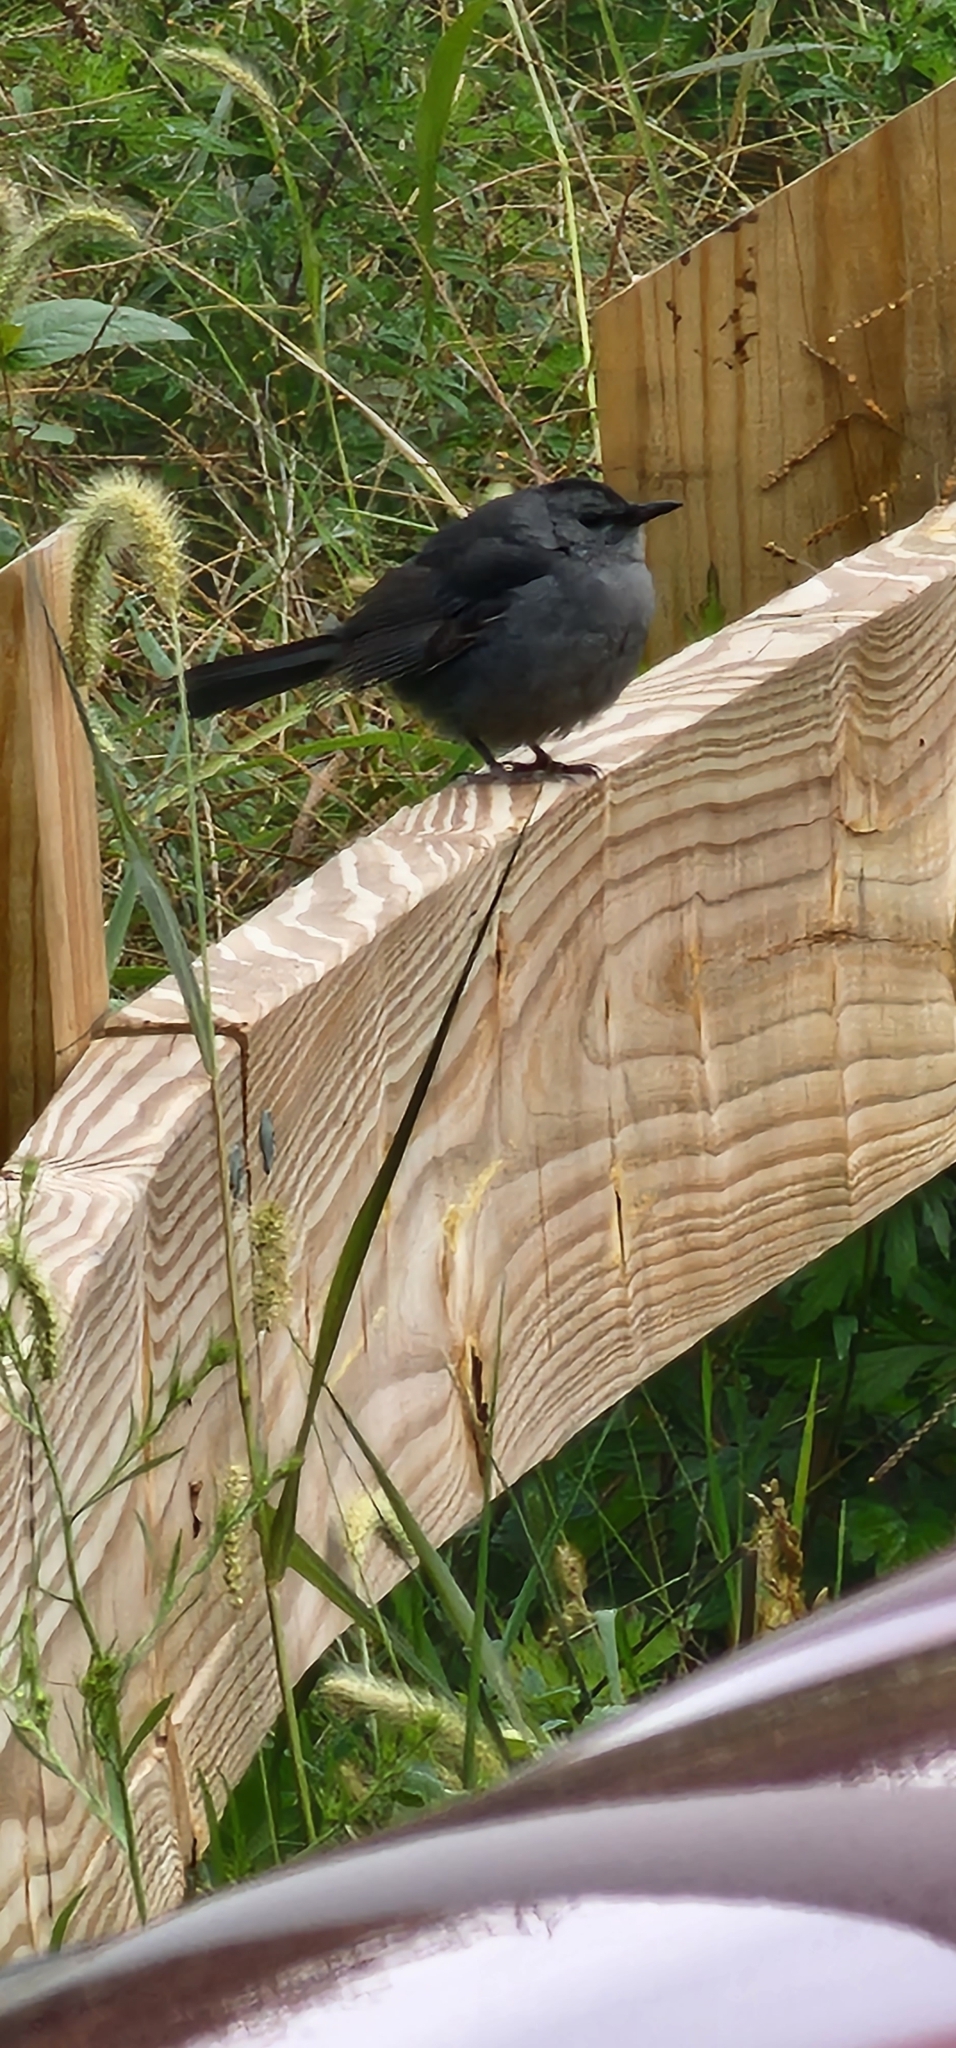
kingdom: Animalia
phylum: Chordata
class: Aves
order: Passeriformes
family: Mimidae
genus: Dumetella
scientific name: Dumetella carolinensis
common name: Gray catbird
